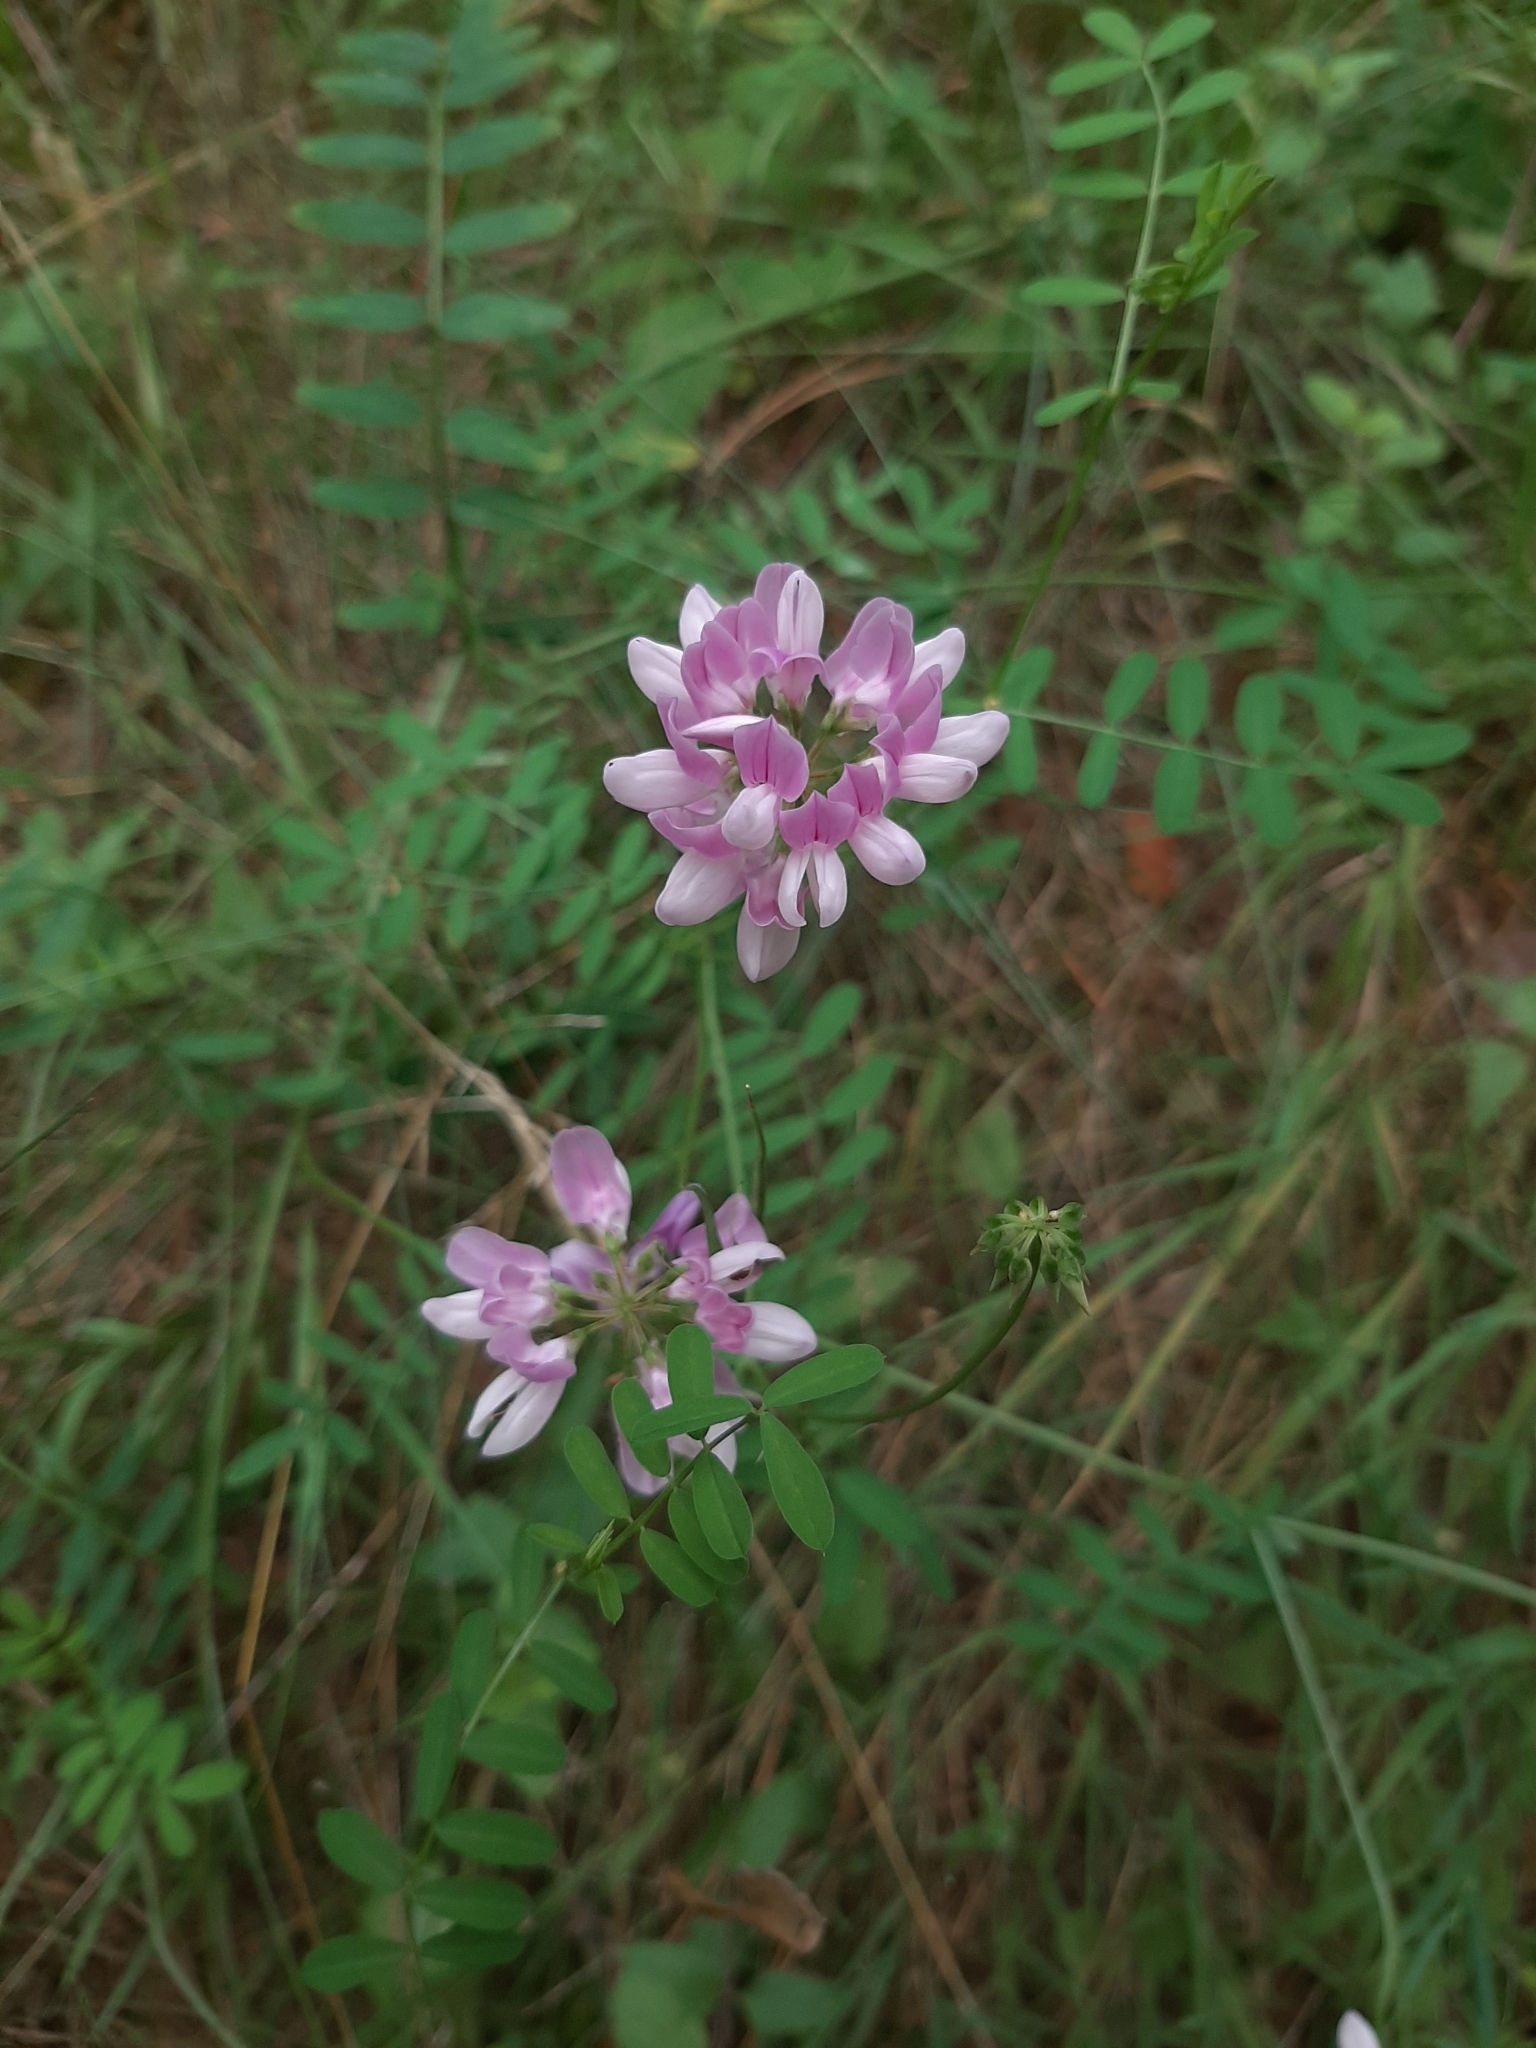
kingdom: Plantae
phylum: Tracheophyta
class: Magnoliopsida
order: Fabales
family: Fabaceae
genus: Coronilla
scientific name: Coronilla varia
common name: Crownvetch
